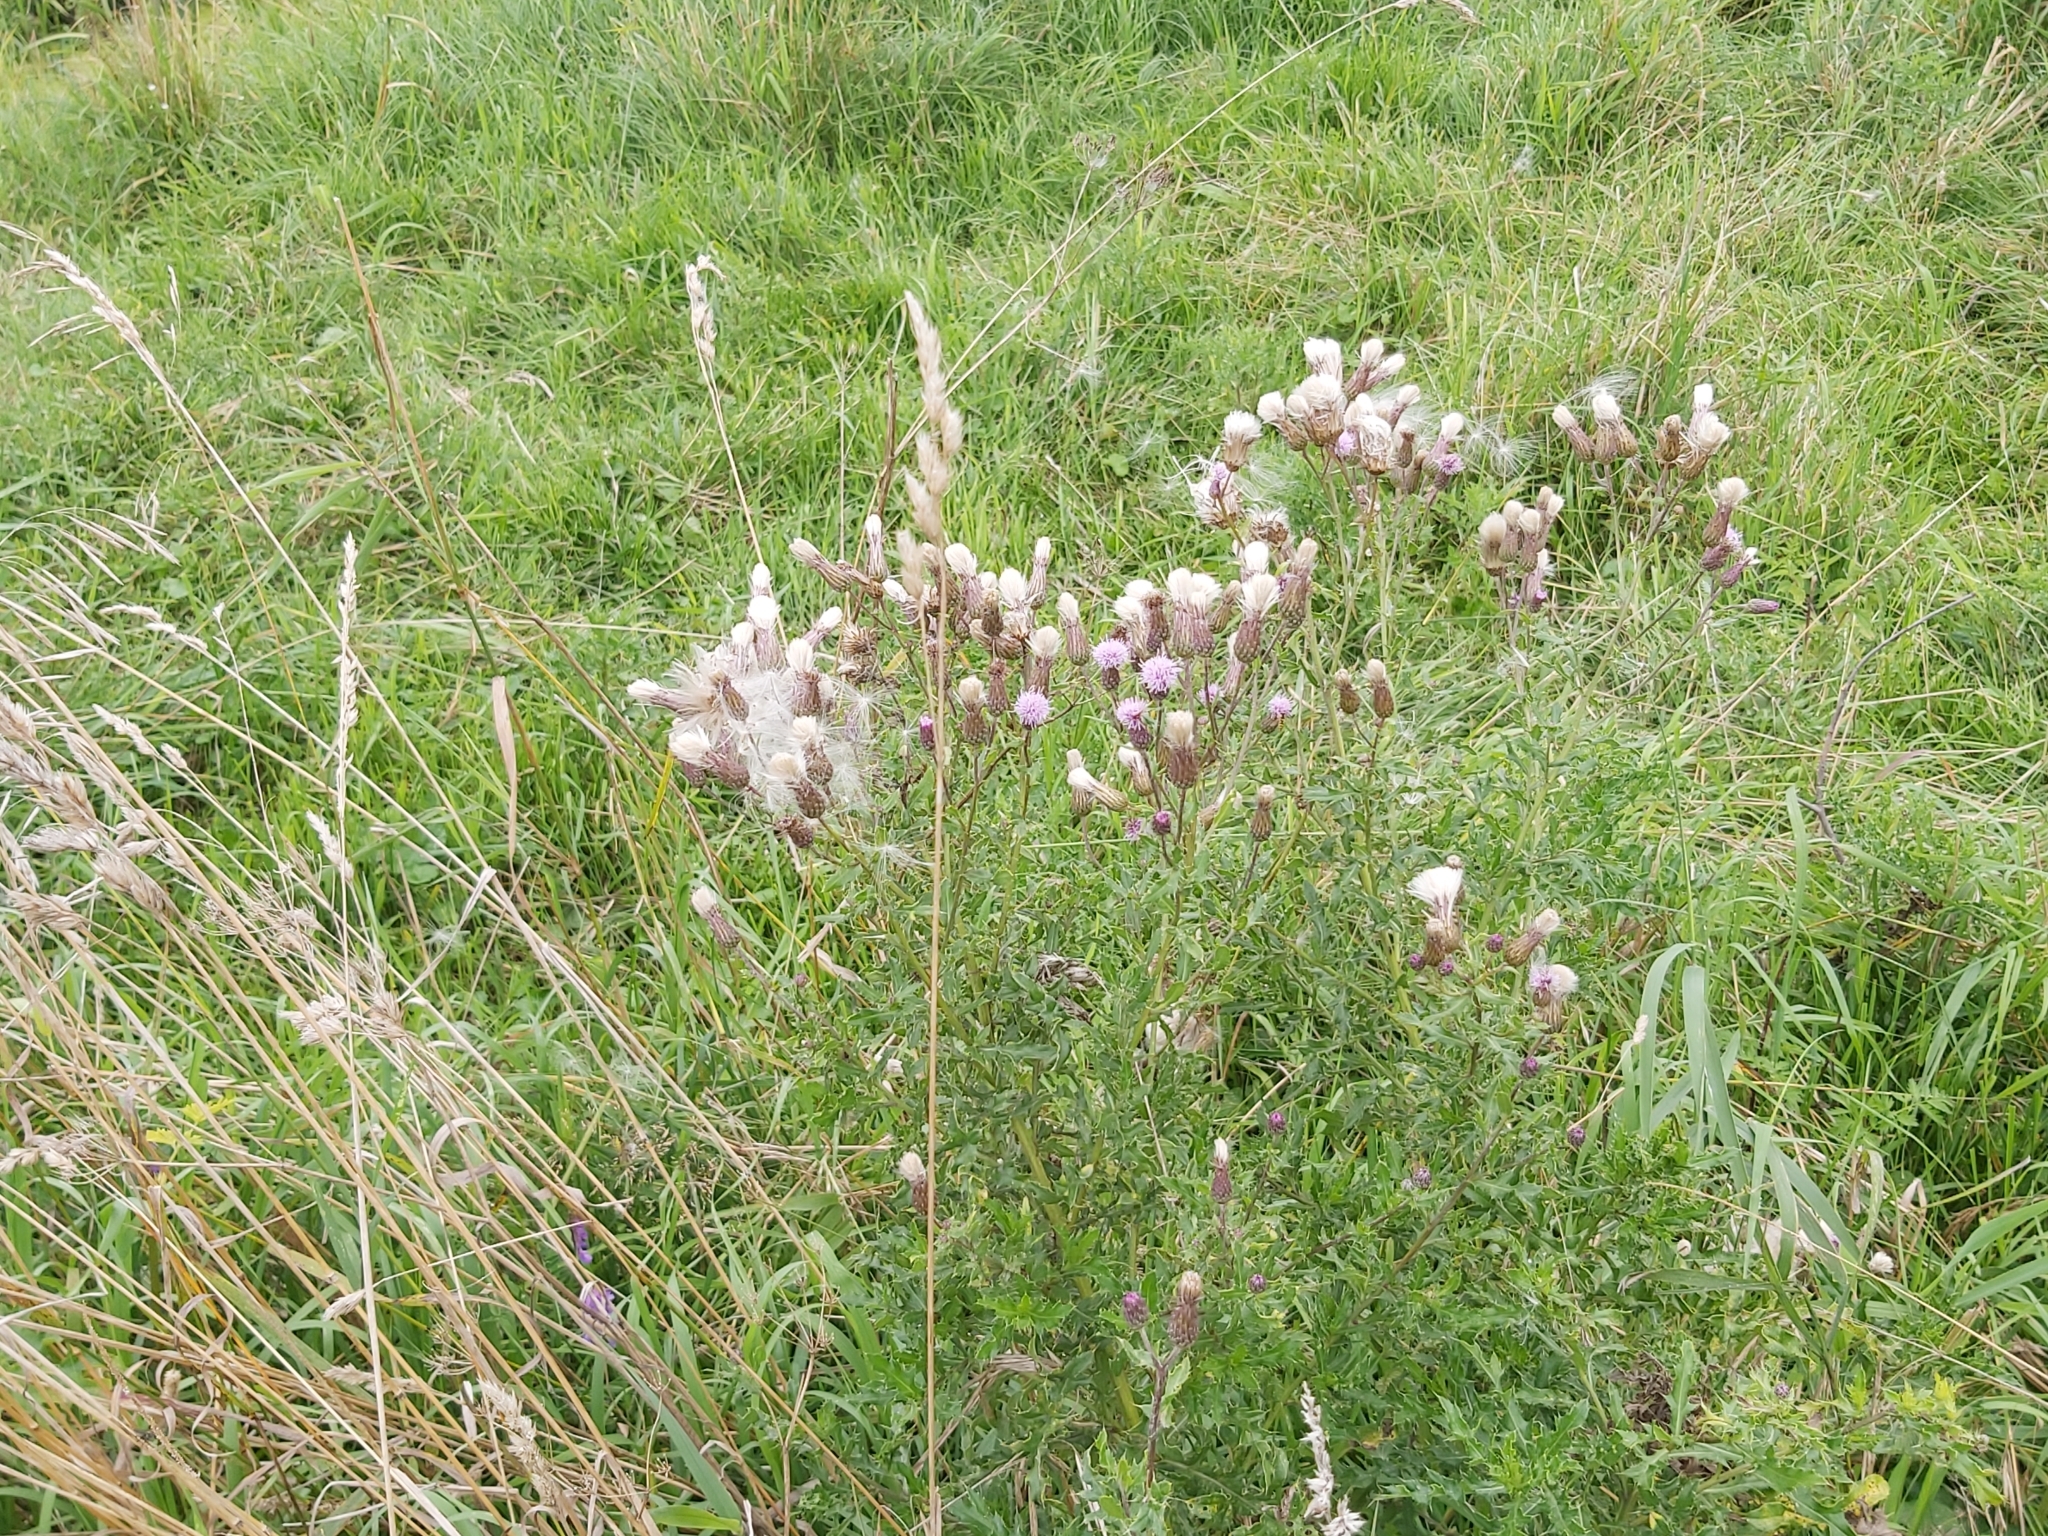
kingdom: Plantae
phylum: Tracheophyta
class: Magnoliopsida
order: Asterales
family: Asteraceae
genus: Cirsium
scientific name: Cirsium arvense
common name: Creeping thistle
